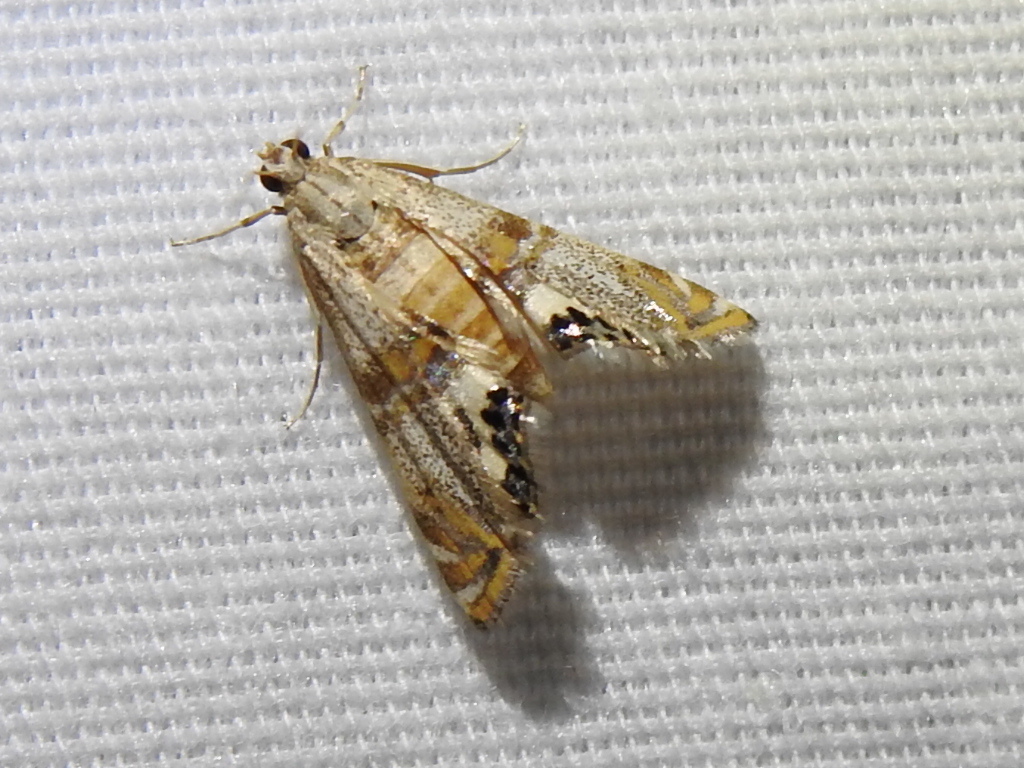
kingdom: Animalia
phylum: Arthropoda
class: Insecta
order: Lepidoptera
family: Crambidae
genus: Petrophila
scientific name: Petrophila bifascialis
